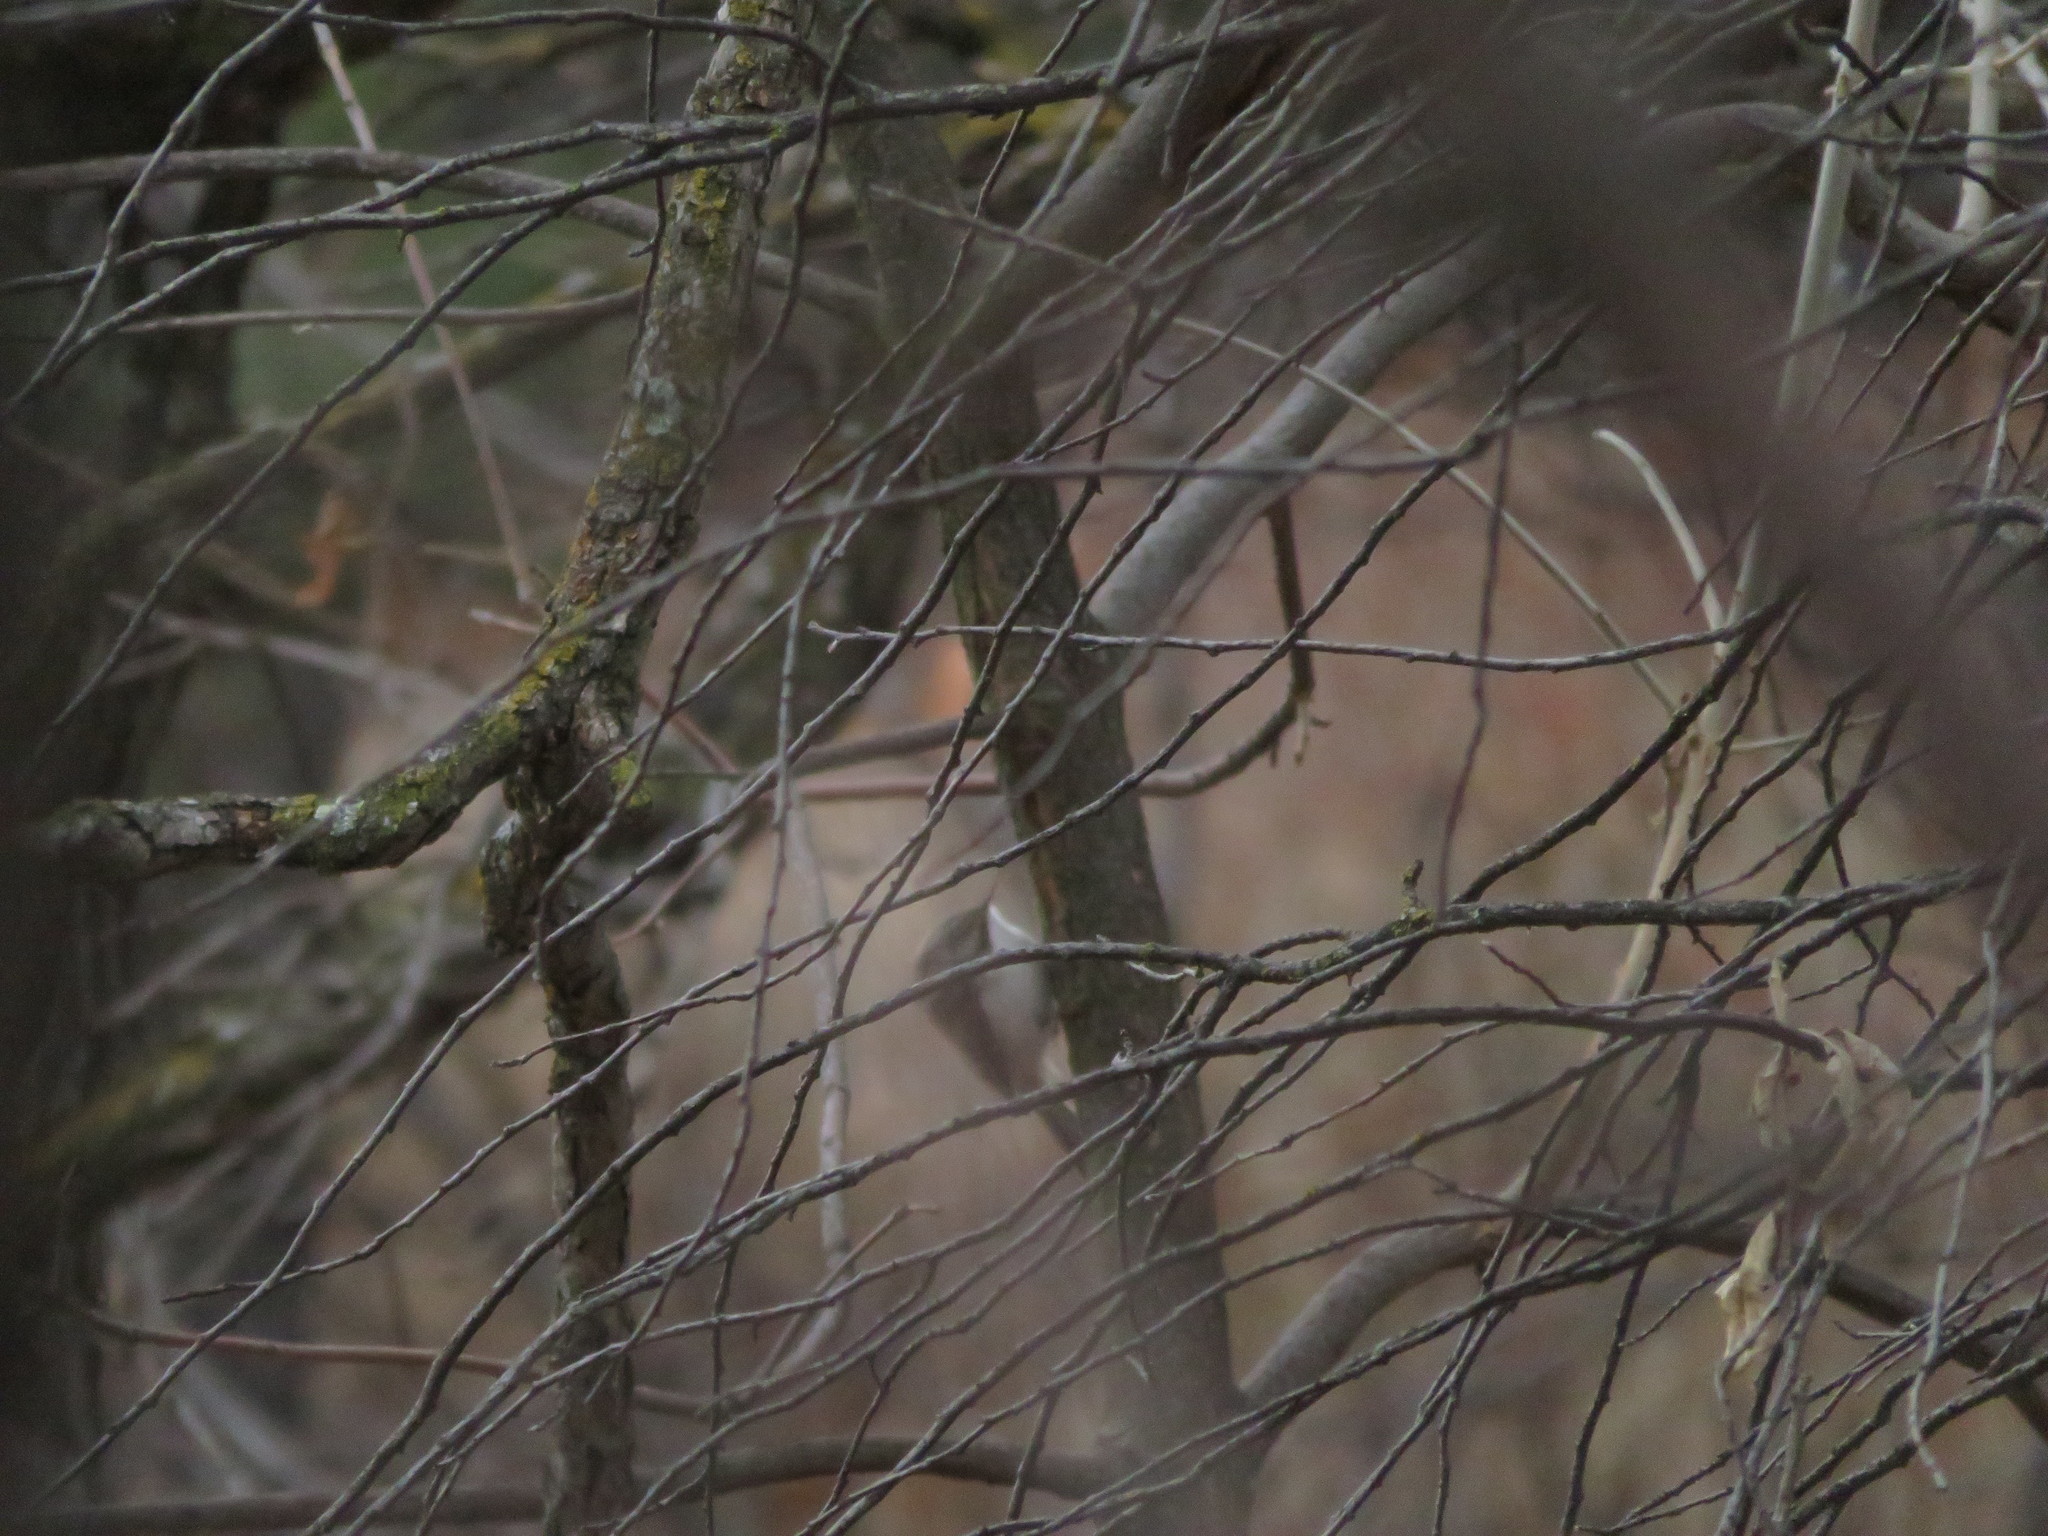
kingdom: Animalia
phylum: Chordata
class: Aves
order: Passeriformes
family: Certhiidae
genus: Certhia
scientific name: Certhia americana
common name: Brown creeper
